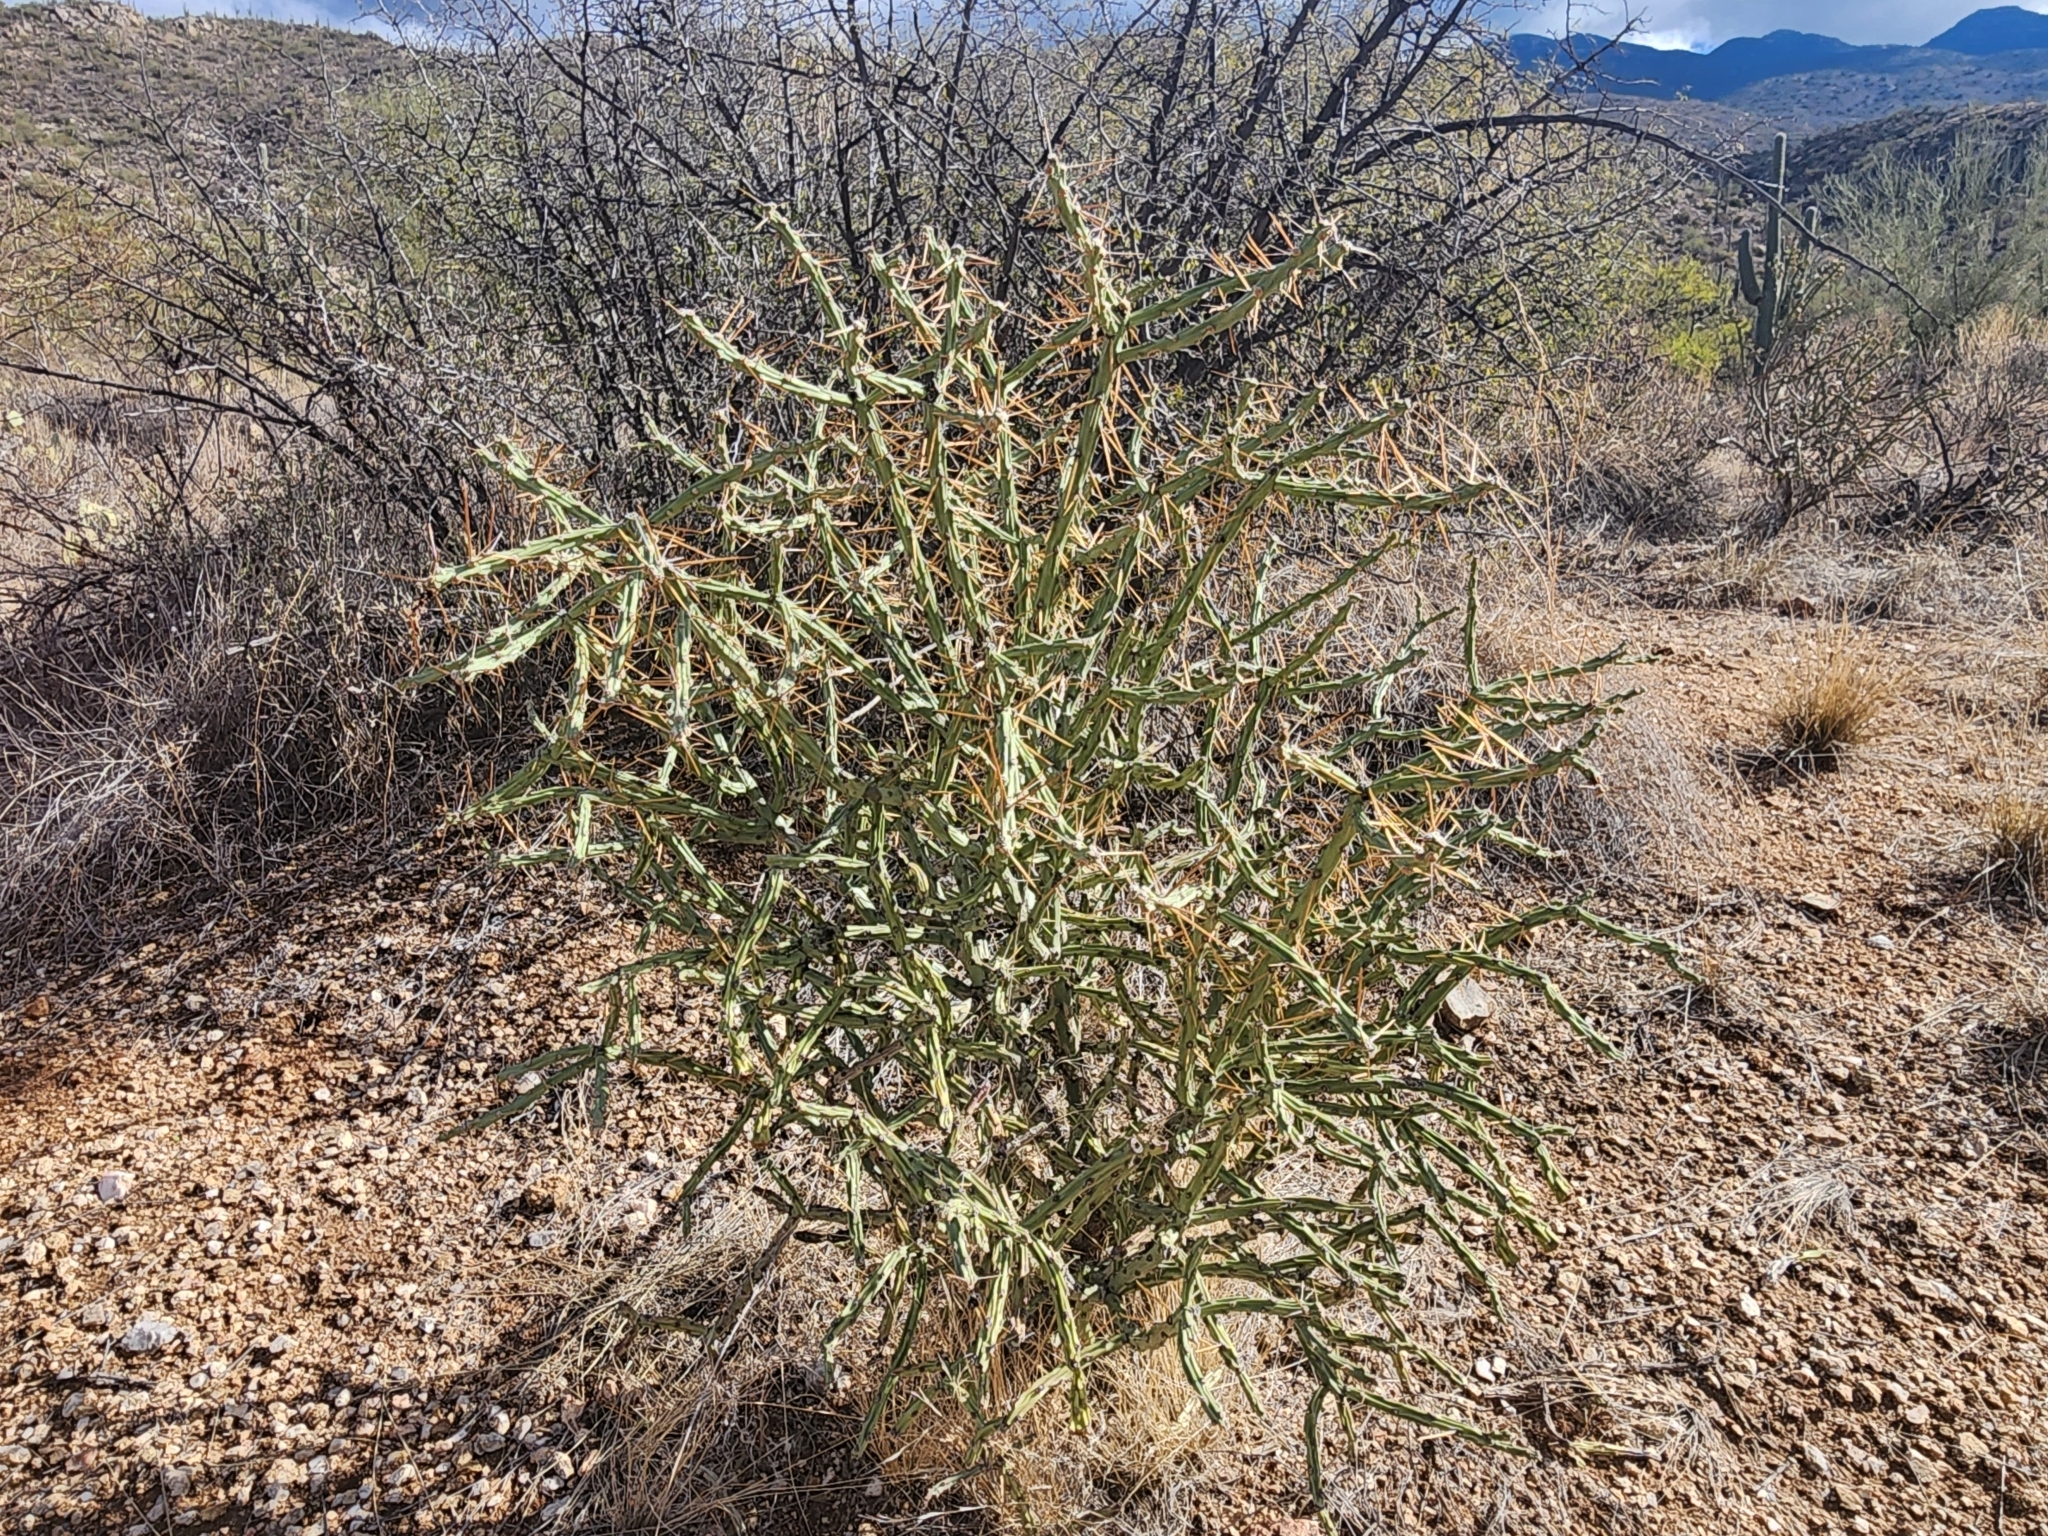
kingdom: Plantae
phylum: Tracheophyta
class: Magnoliopsida
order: Caryophyllales
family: Cactaceae
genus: Cylindropuntia
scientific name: Cylindropuntia arbuscula
